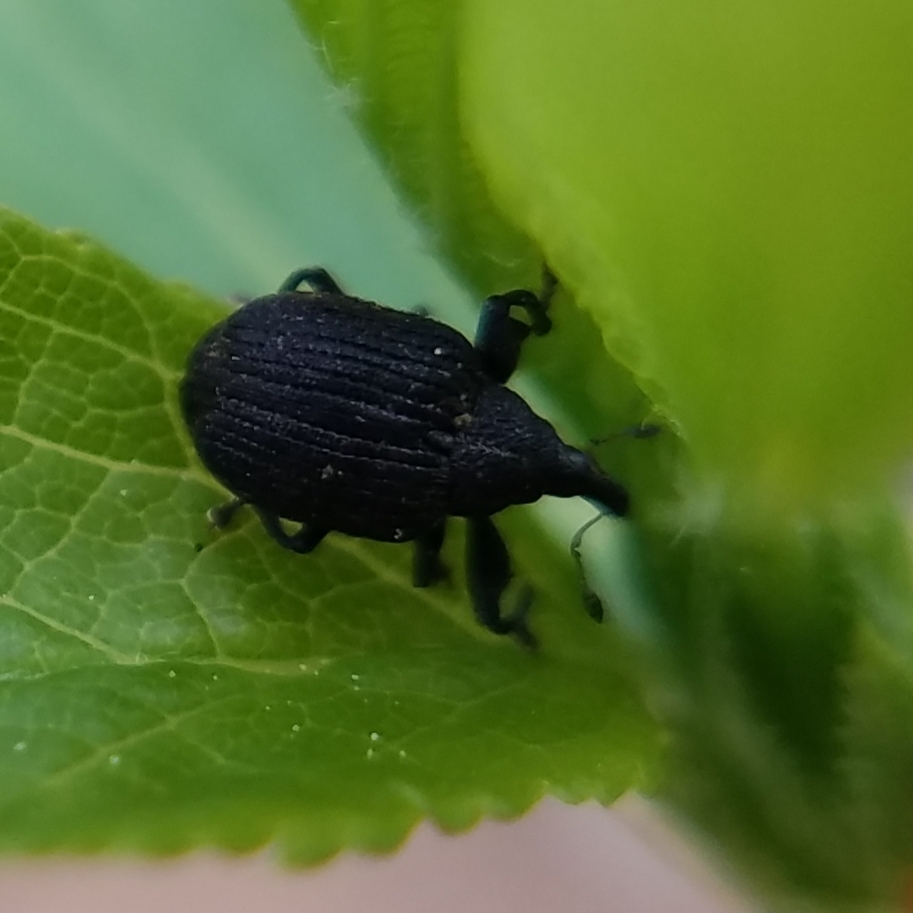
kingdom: Animalia
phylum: Arthropoda
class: Insecta
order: Coleoptera
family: Curculionidae
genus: Odontopus
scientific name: Odontopus calceatus
